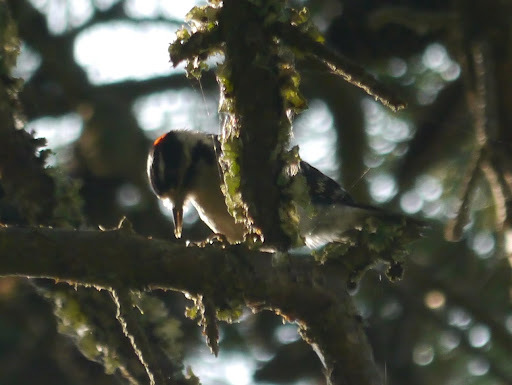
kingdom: Animalia
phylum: Chordata
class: Aves
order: Piciformes
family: Picidae
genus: Dryobates
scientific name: Dryobates pubescens
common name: Downy woodpecker
